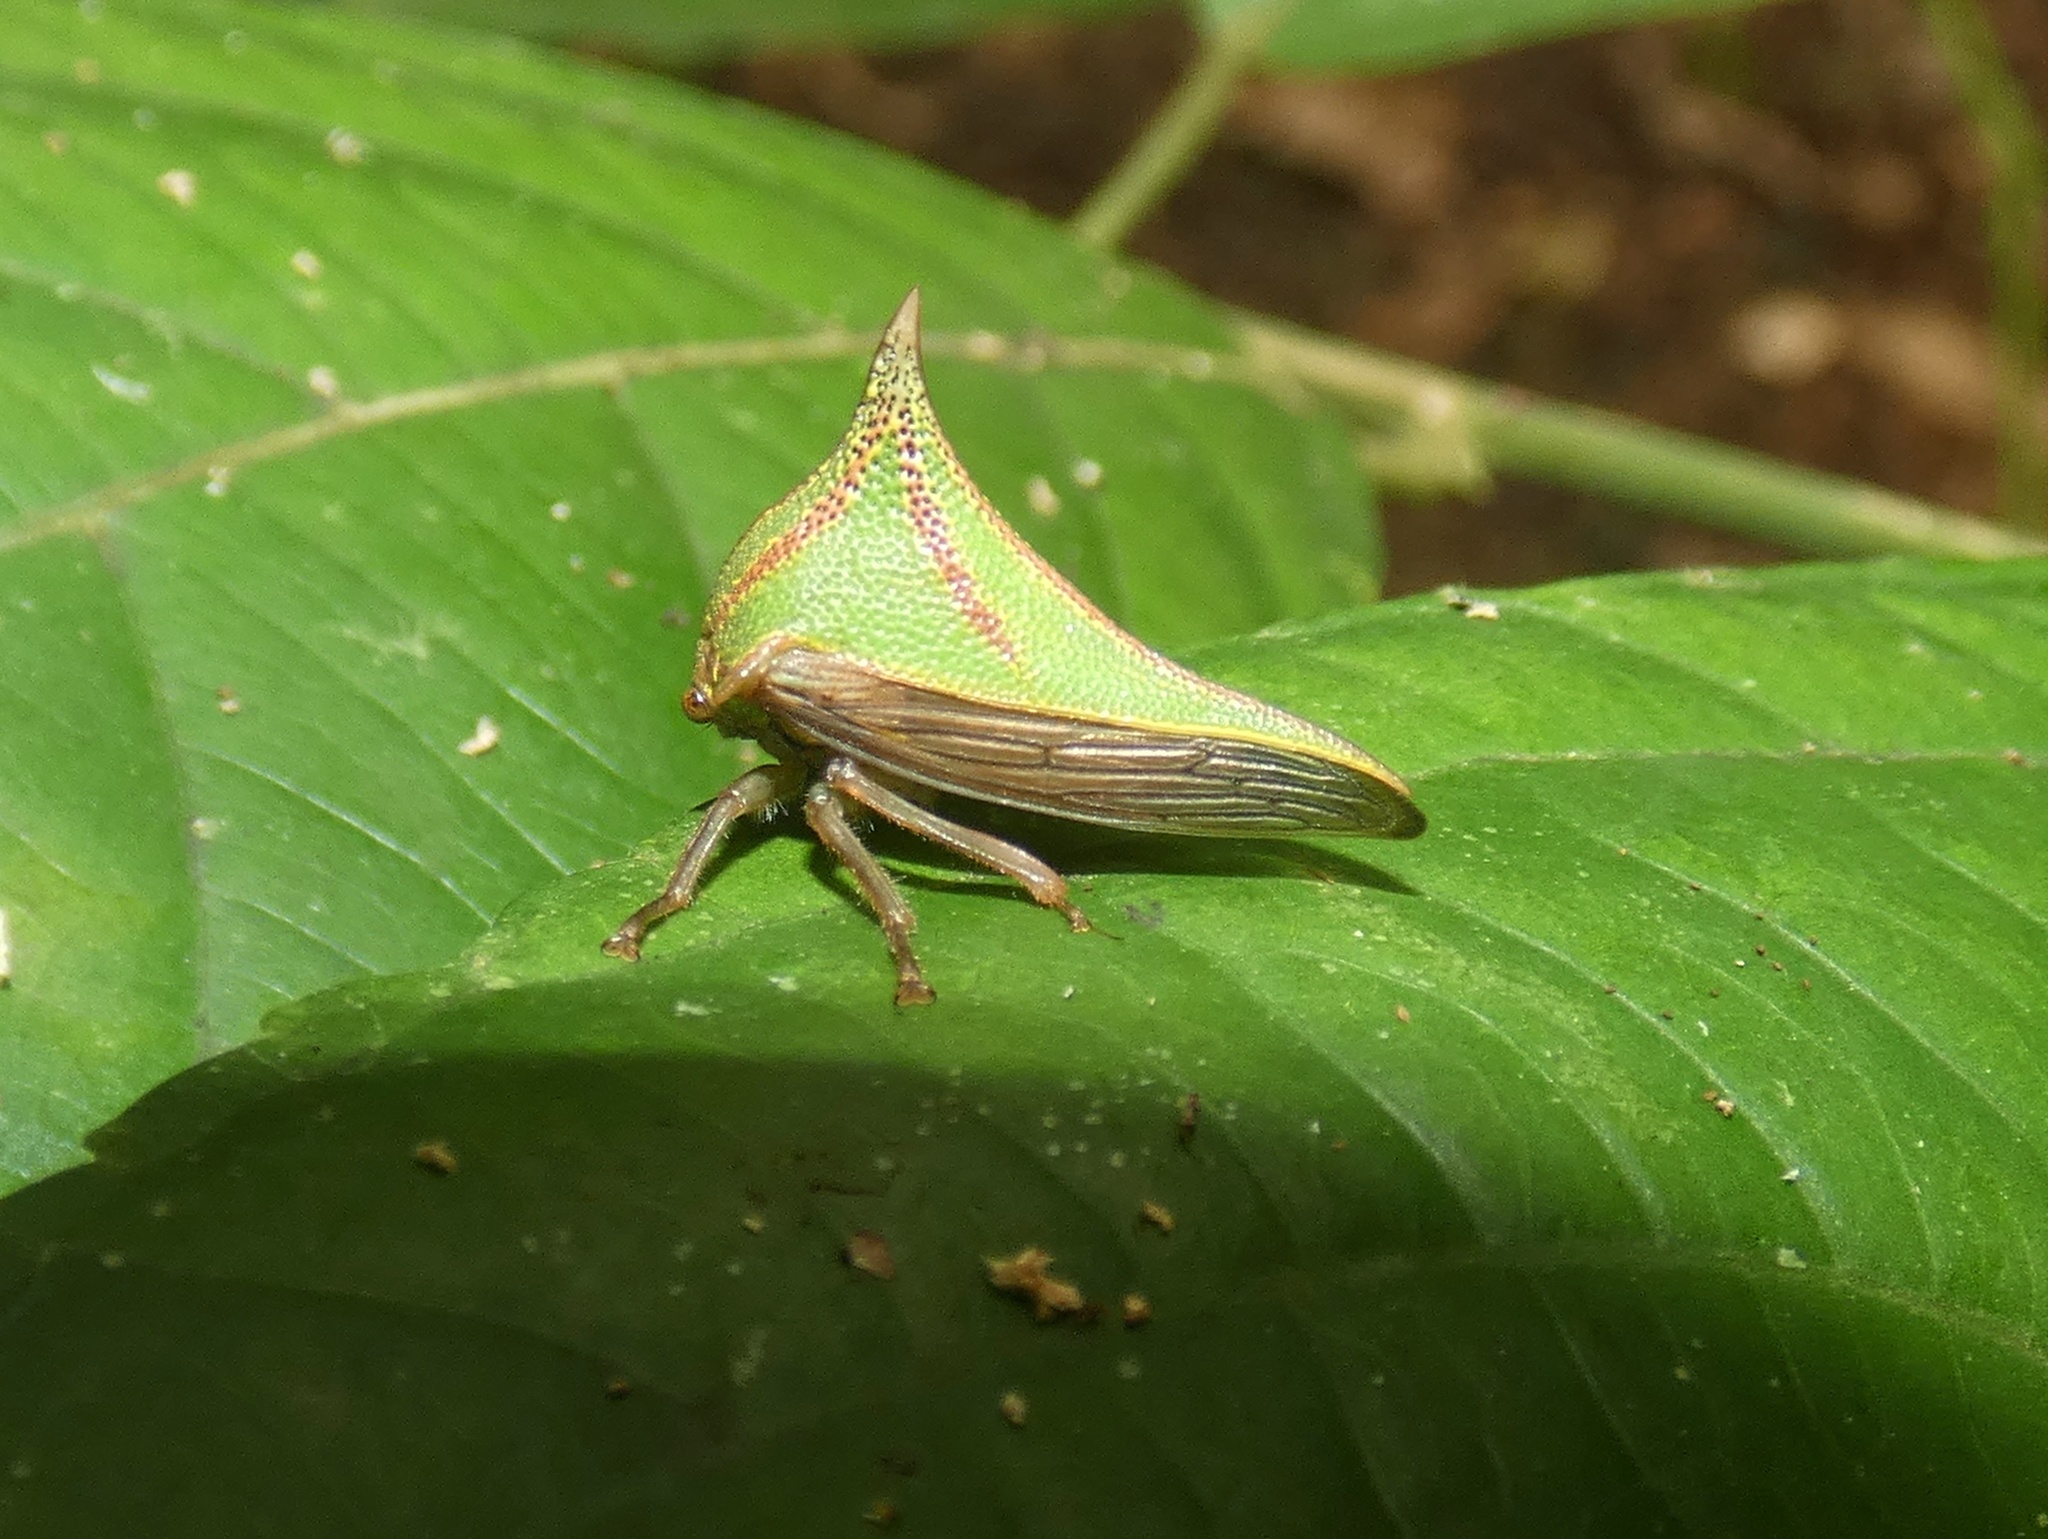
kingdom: Animalia
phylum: Arthropoda
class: Insecta
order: Hemiptera
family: Membracidae
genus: Umbonia
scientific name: Umbonia spinosa
